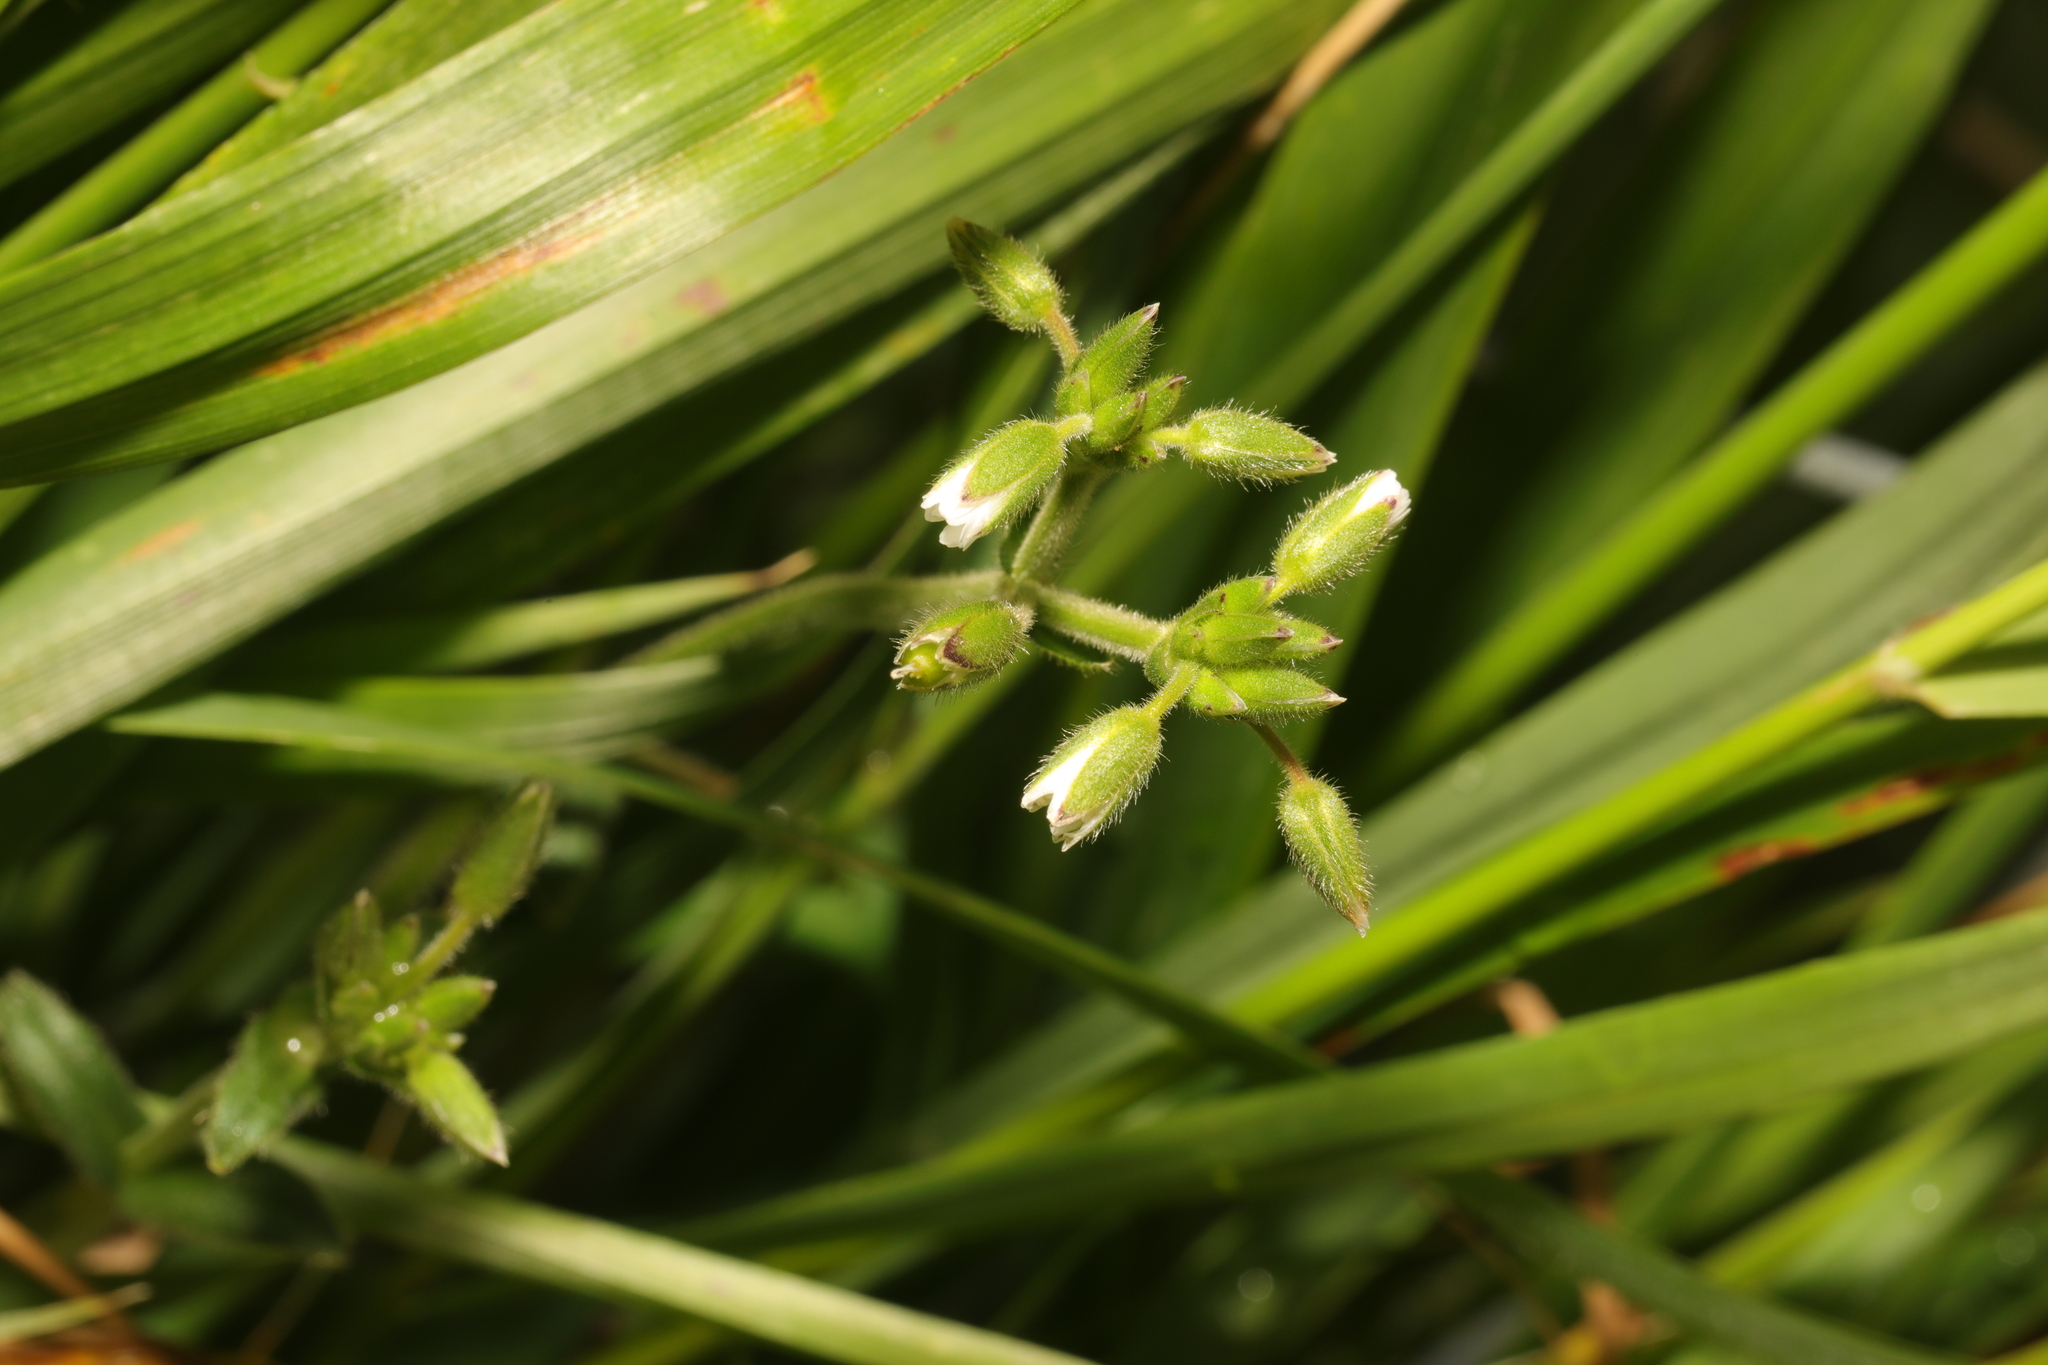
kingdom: Plantae
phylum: Tracheophyta
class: Magnoliopsida
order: Caryophyllales
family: Caryophyllaceae
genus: Cerastium
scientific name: Cerastium fontanum
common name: Common mouse-ear
